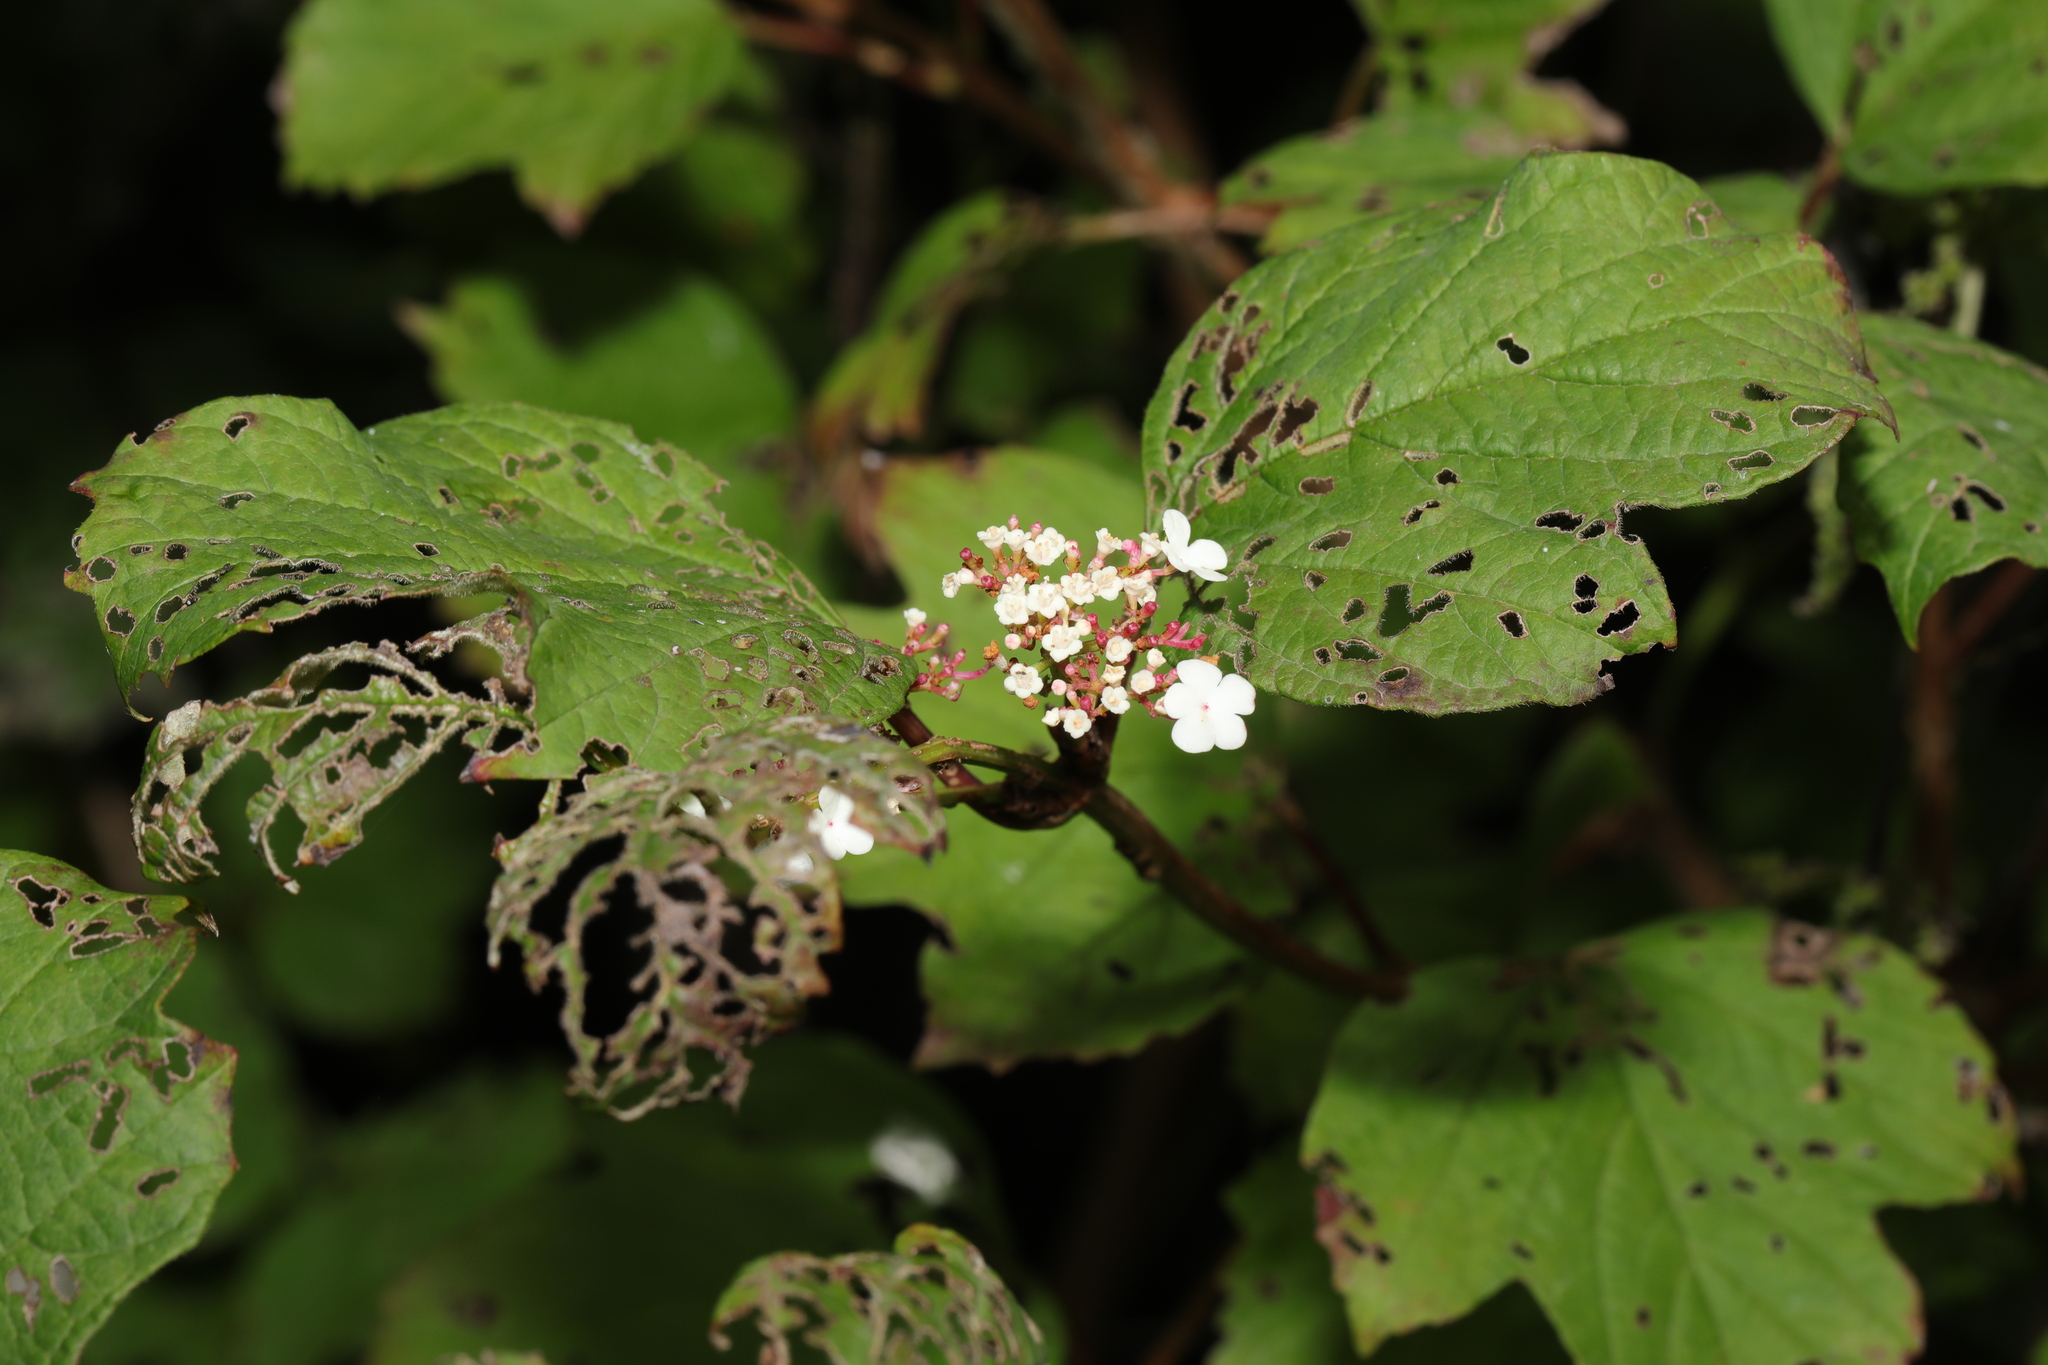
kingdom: Plantae
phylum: Tracheophyta
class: Magnoliopsida
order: Dipsacales
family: Viburnaceae
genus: Viburnum
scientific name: Viburnum opulus
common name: Guelder-rose
